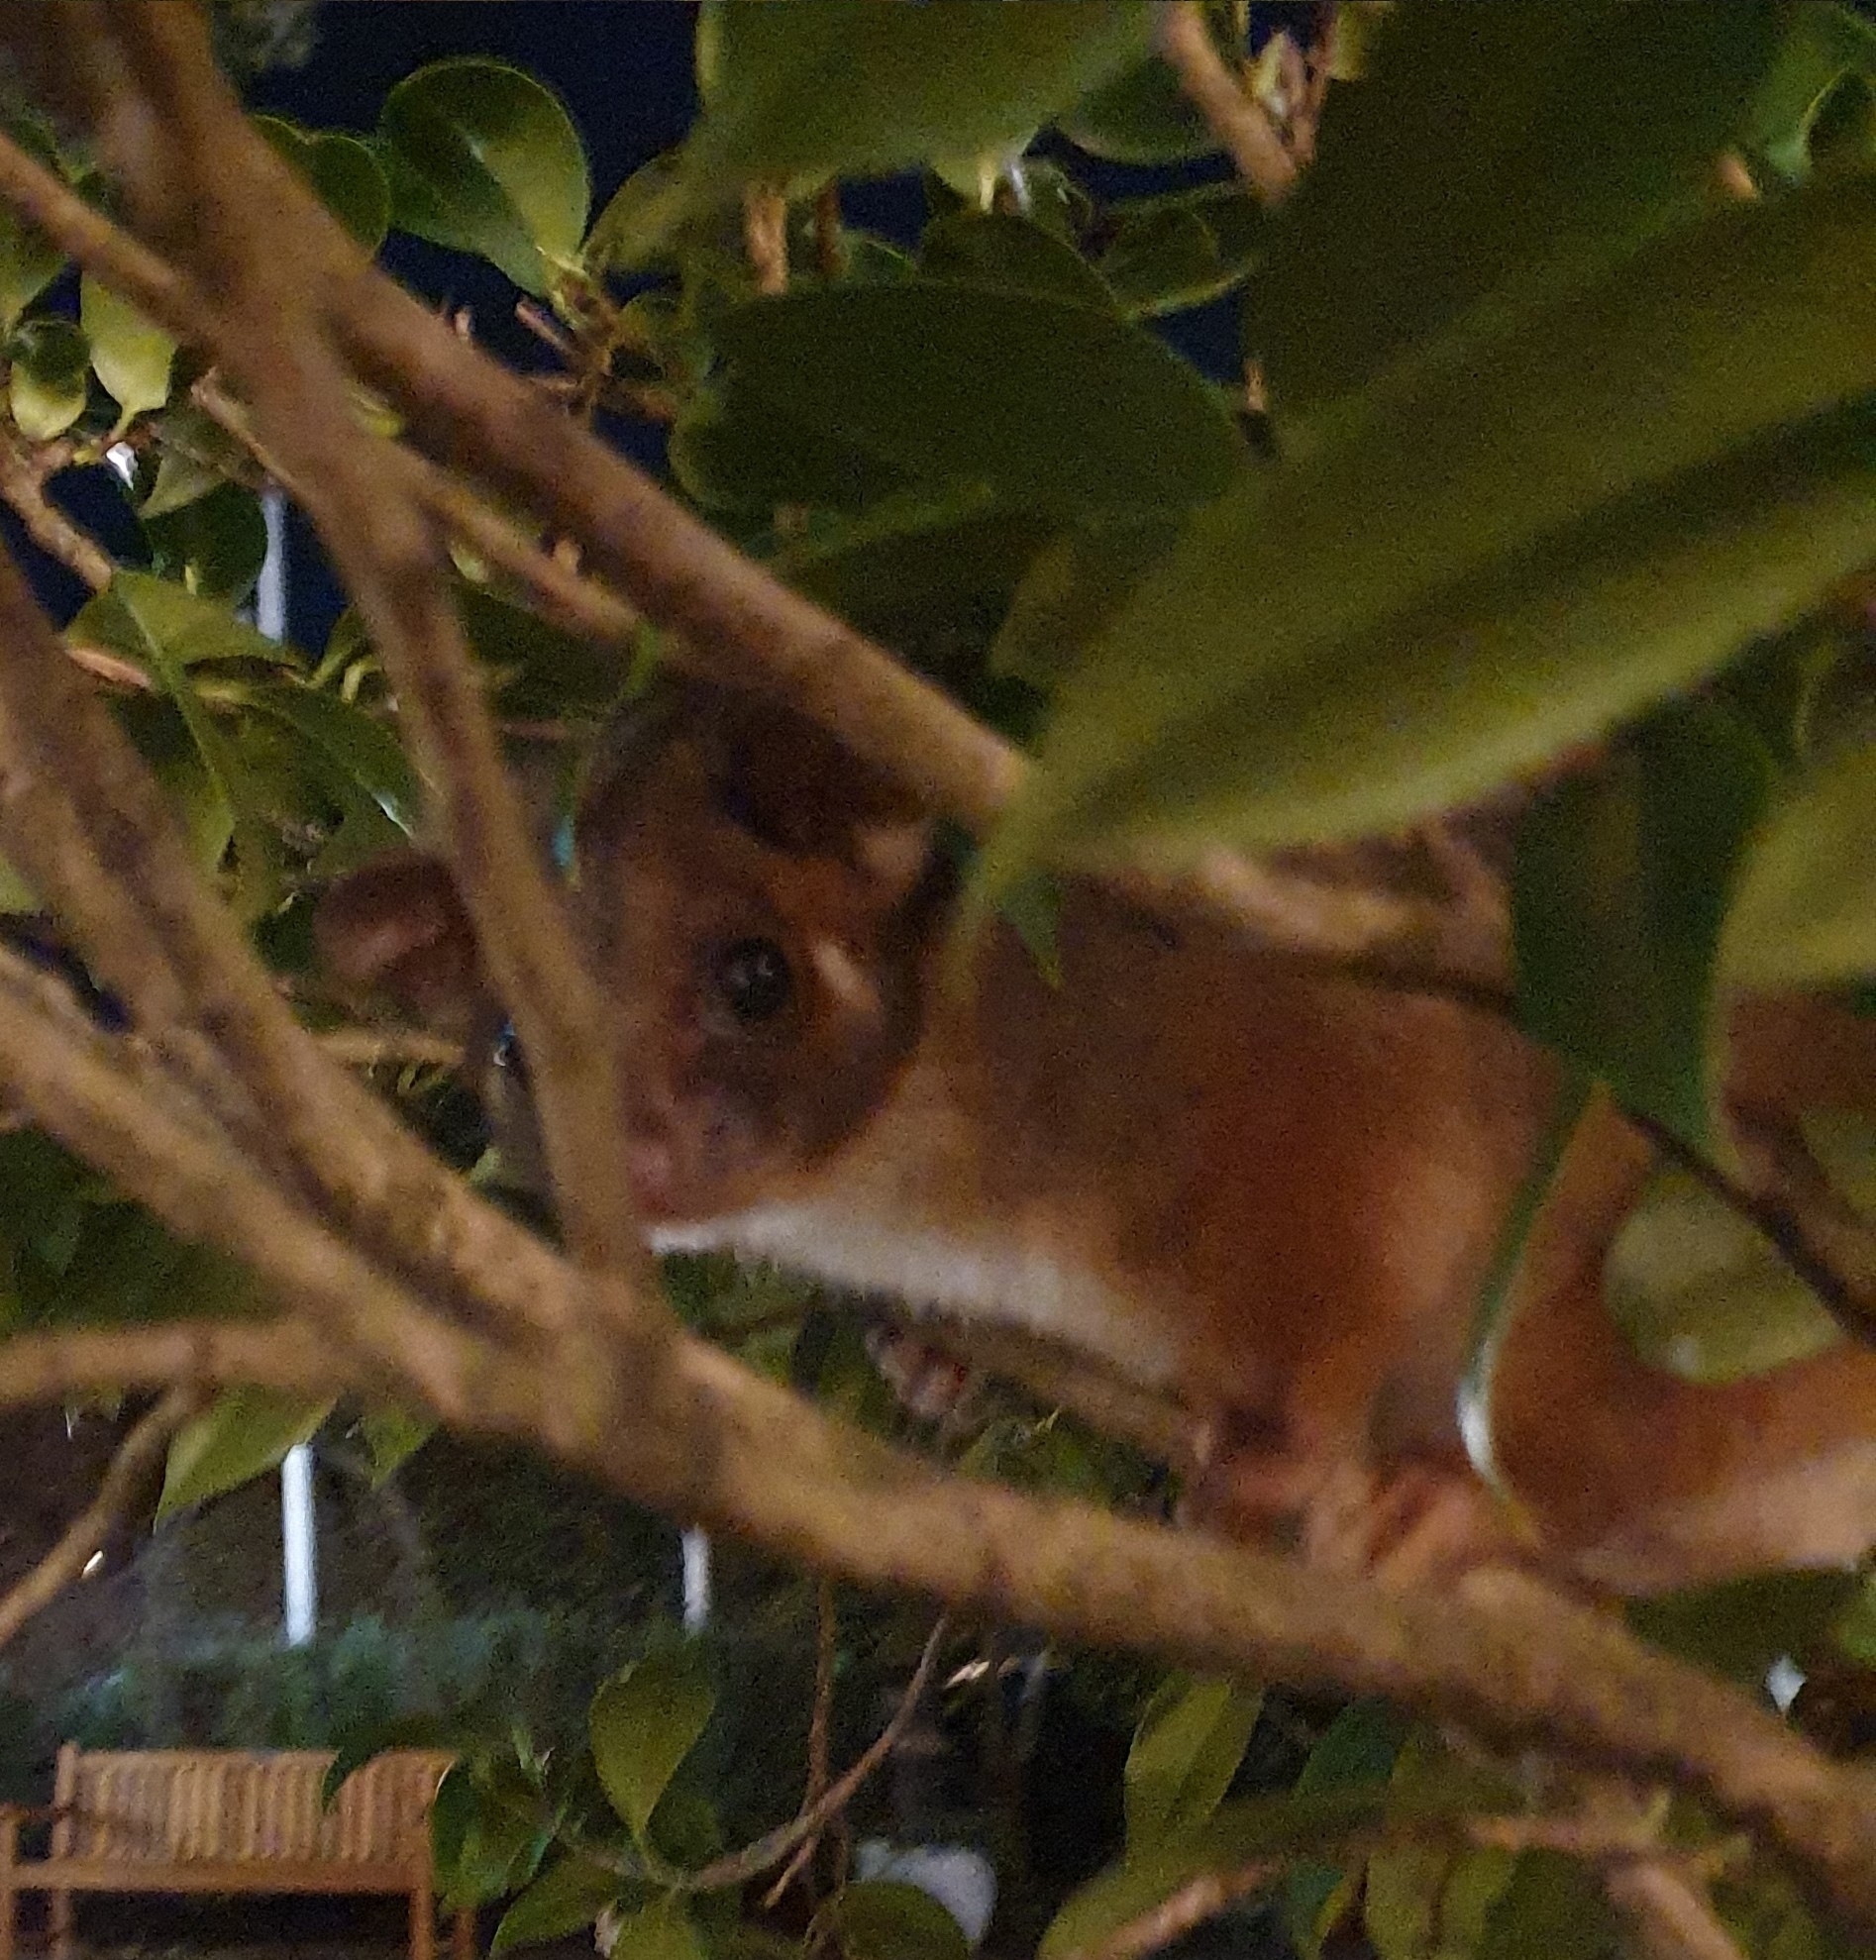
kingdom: Animalia
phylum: Chordata
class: Mammalia
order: Diprotodontia
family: Pseudocheiridae
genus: Pseudocheirus
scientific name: Pseudocheirus peregrinus
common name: Common ringtail possum
